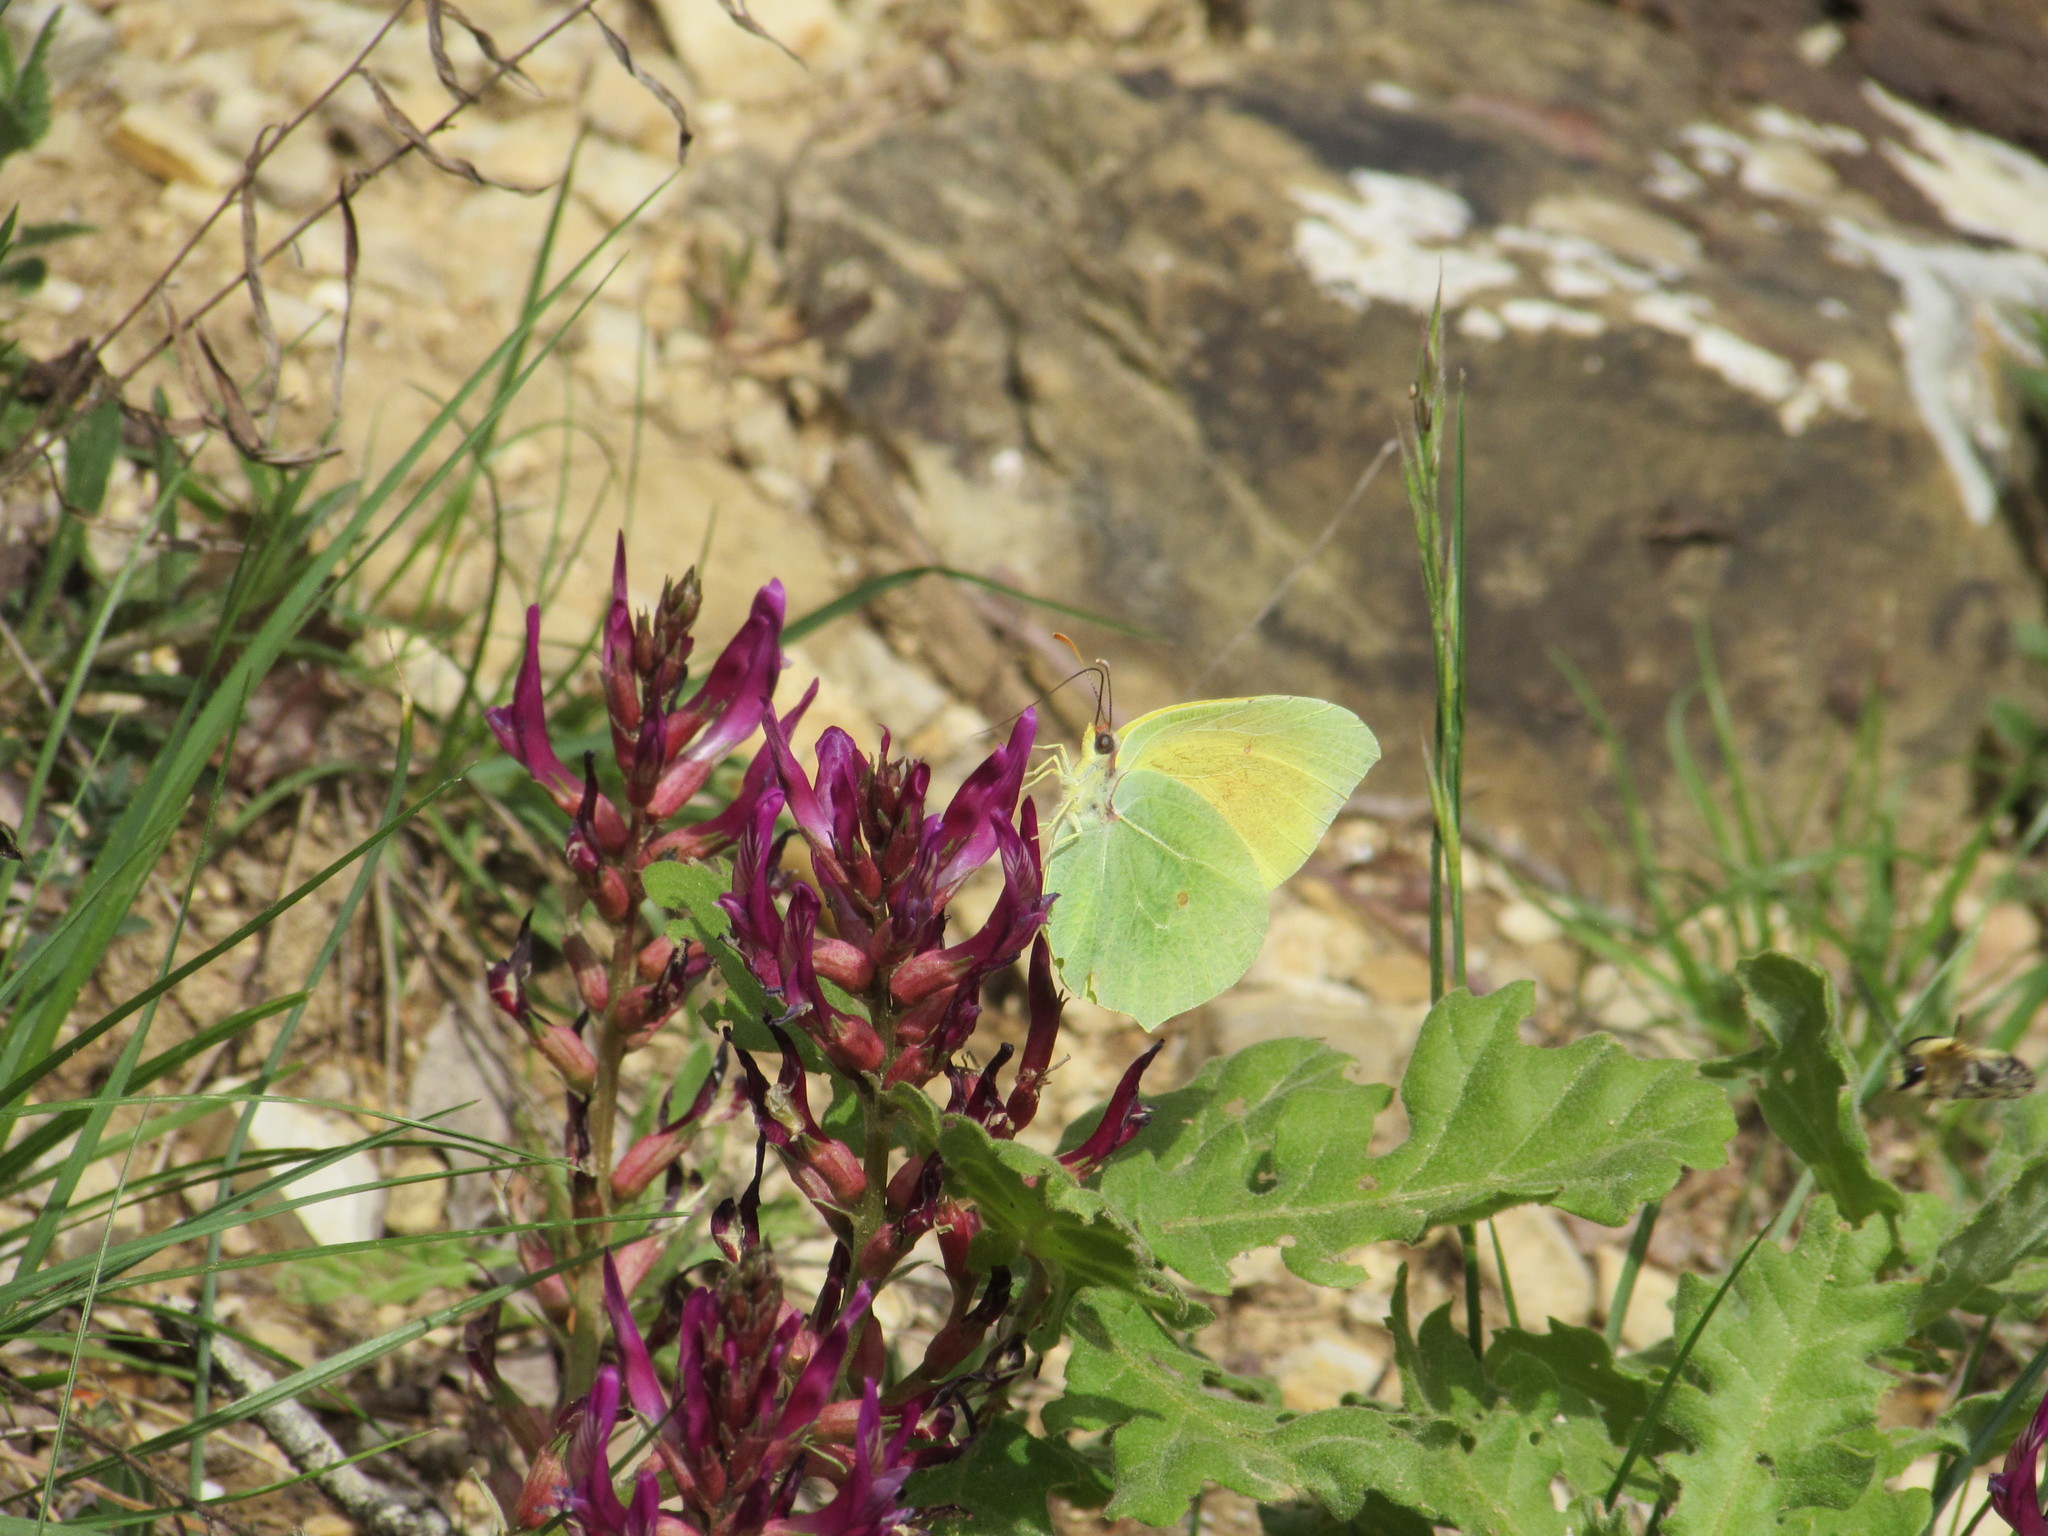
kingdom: Animalia
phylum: Arthropoda
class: Insecta
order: Lepidoptera
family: Pieridae
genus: Gonepteryx
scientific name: Gonepteryx cleopatra
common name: Cleopatra
